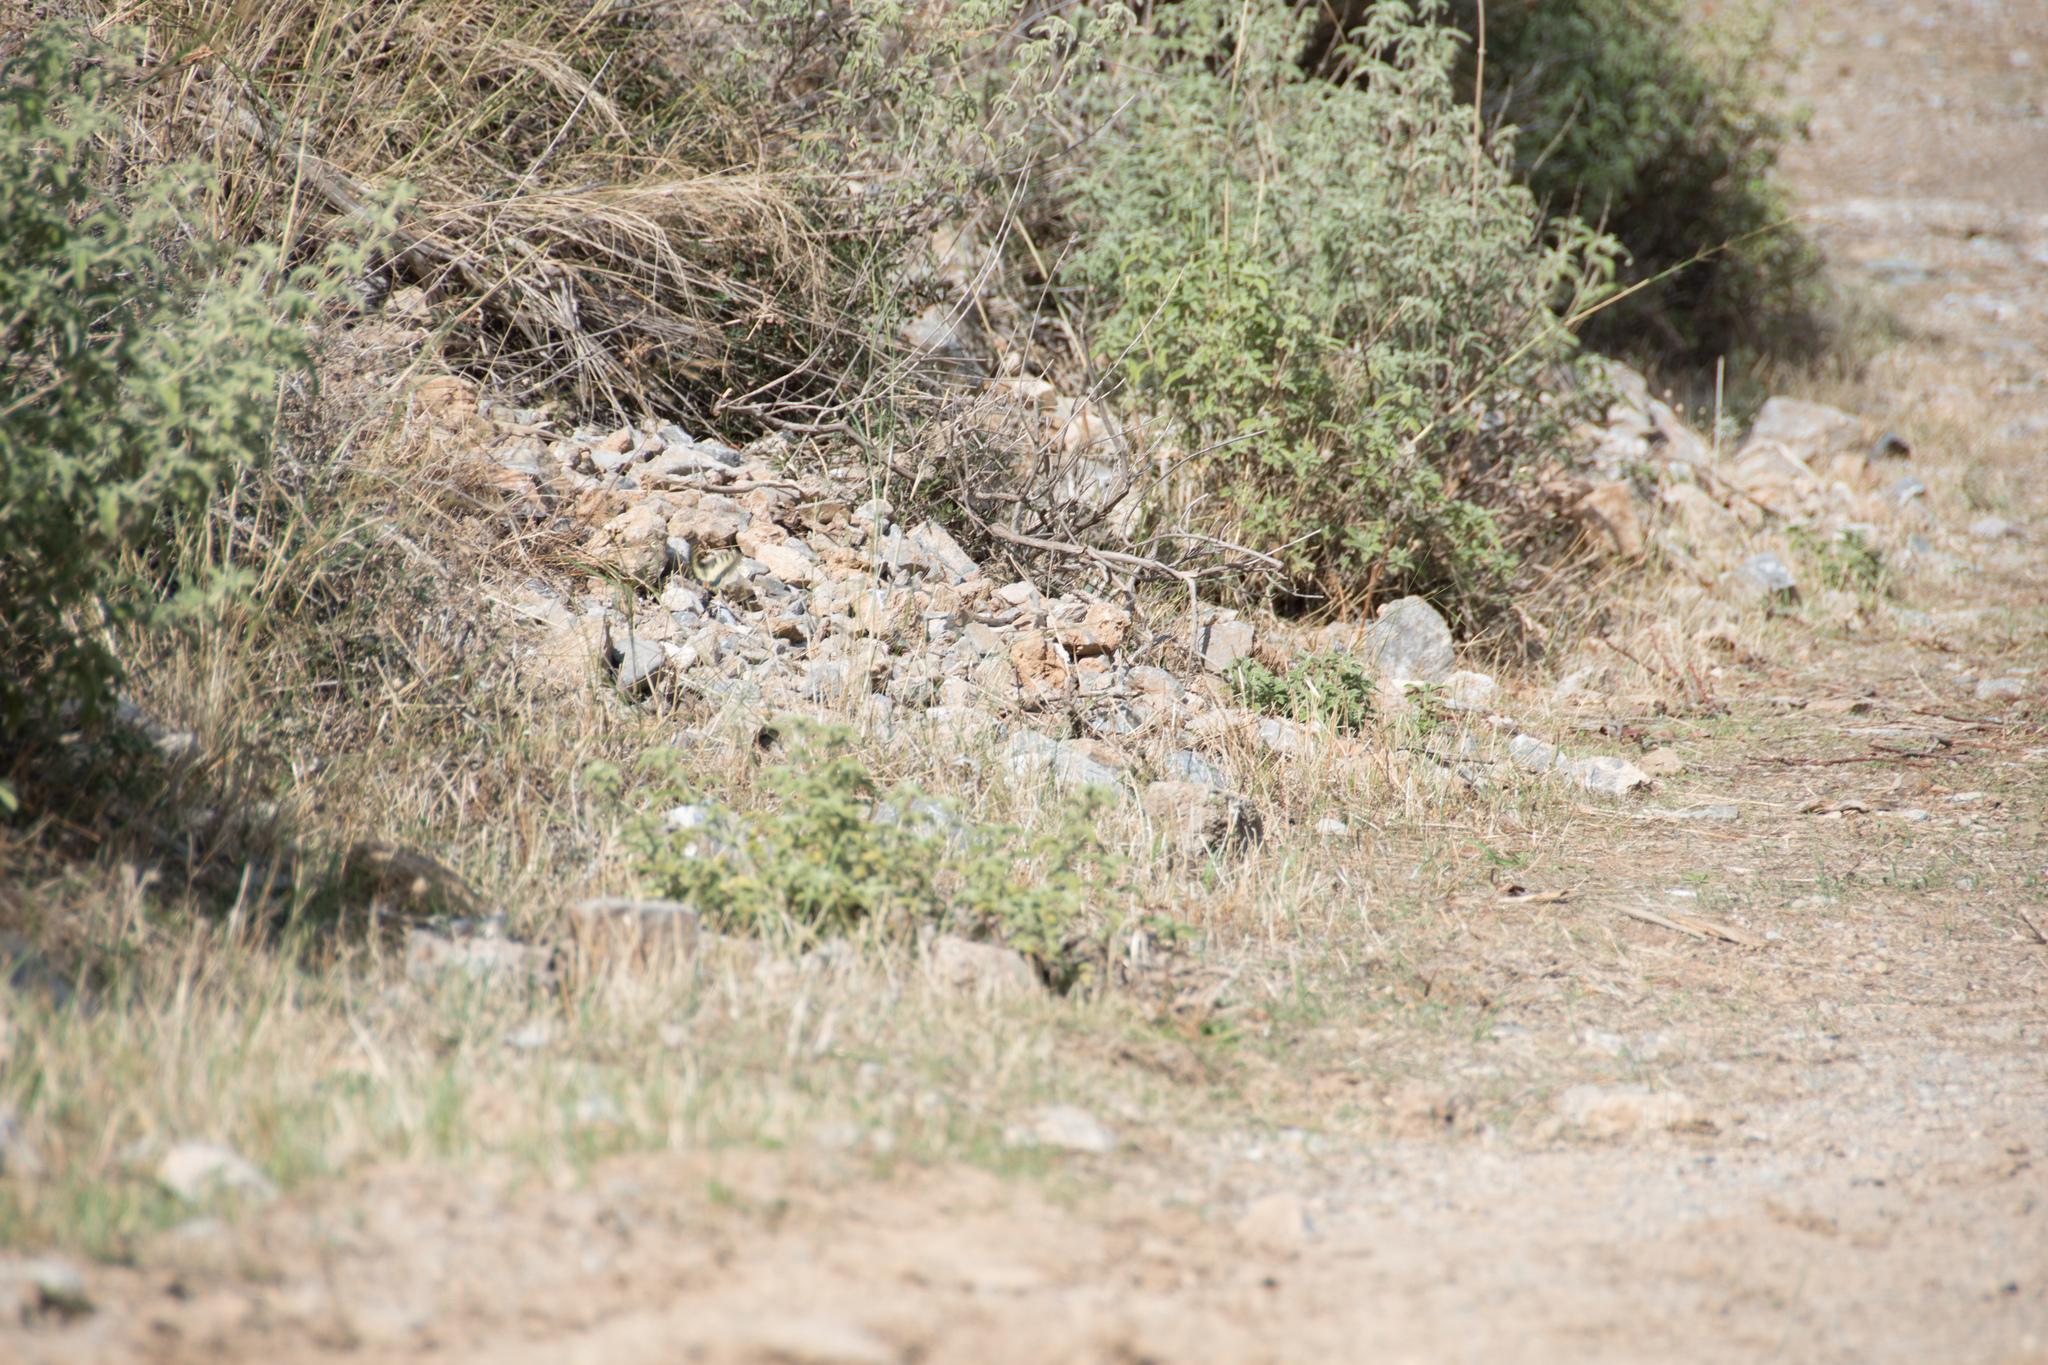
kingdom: Animalia
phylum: Arthropoda
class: Insecta
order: Lepidoptera
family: Papilionidae
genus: Papilio
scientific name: Papilio machaon
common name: Swallowtail
